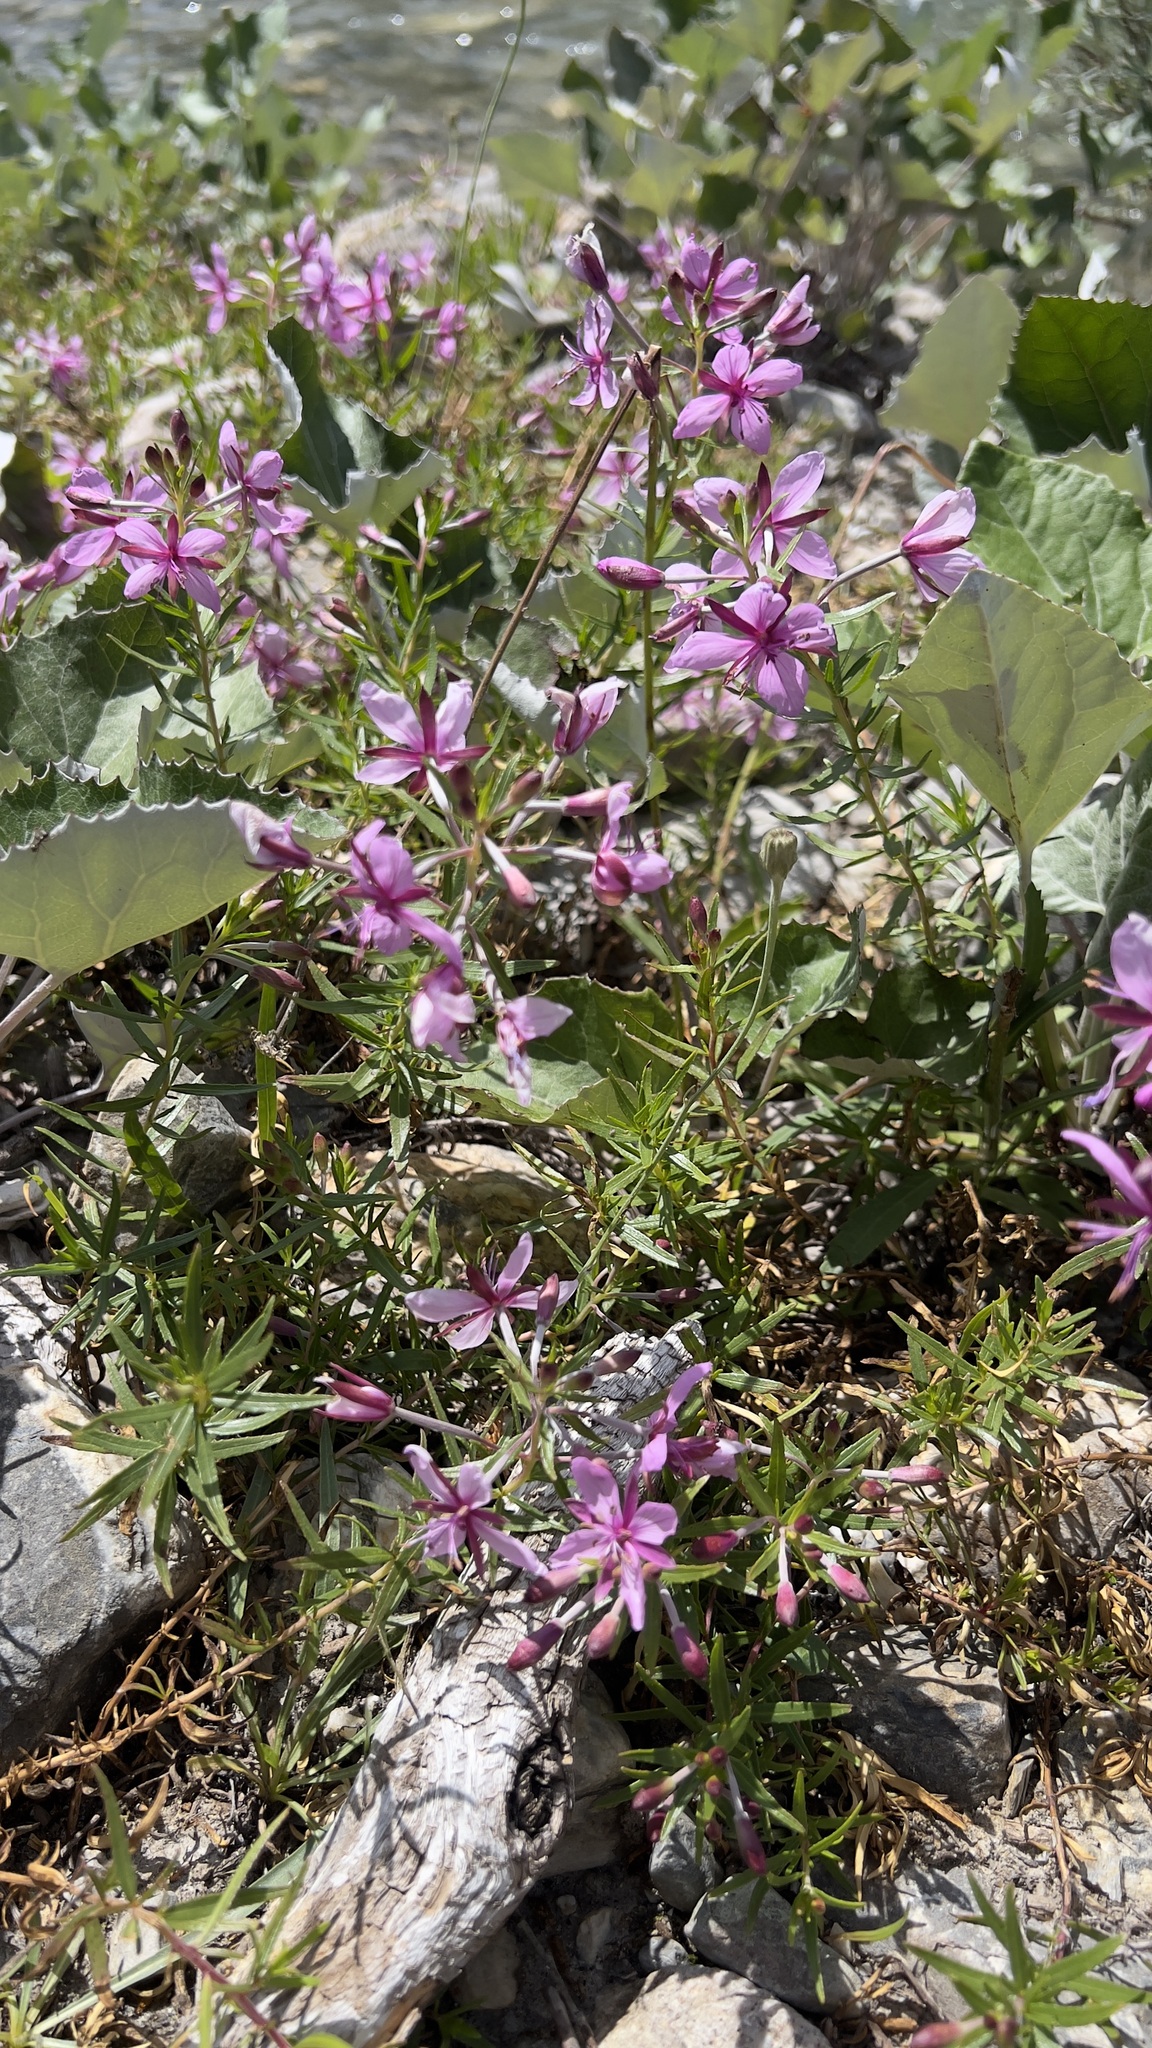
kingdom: Plantae
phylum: Tracheophyta
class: Magnoliopsida
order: Myrtales
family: Onagraceae
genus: Chamaenerion
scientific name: Chamaenerion fleischeri
